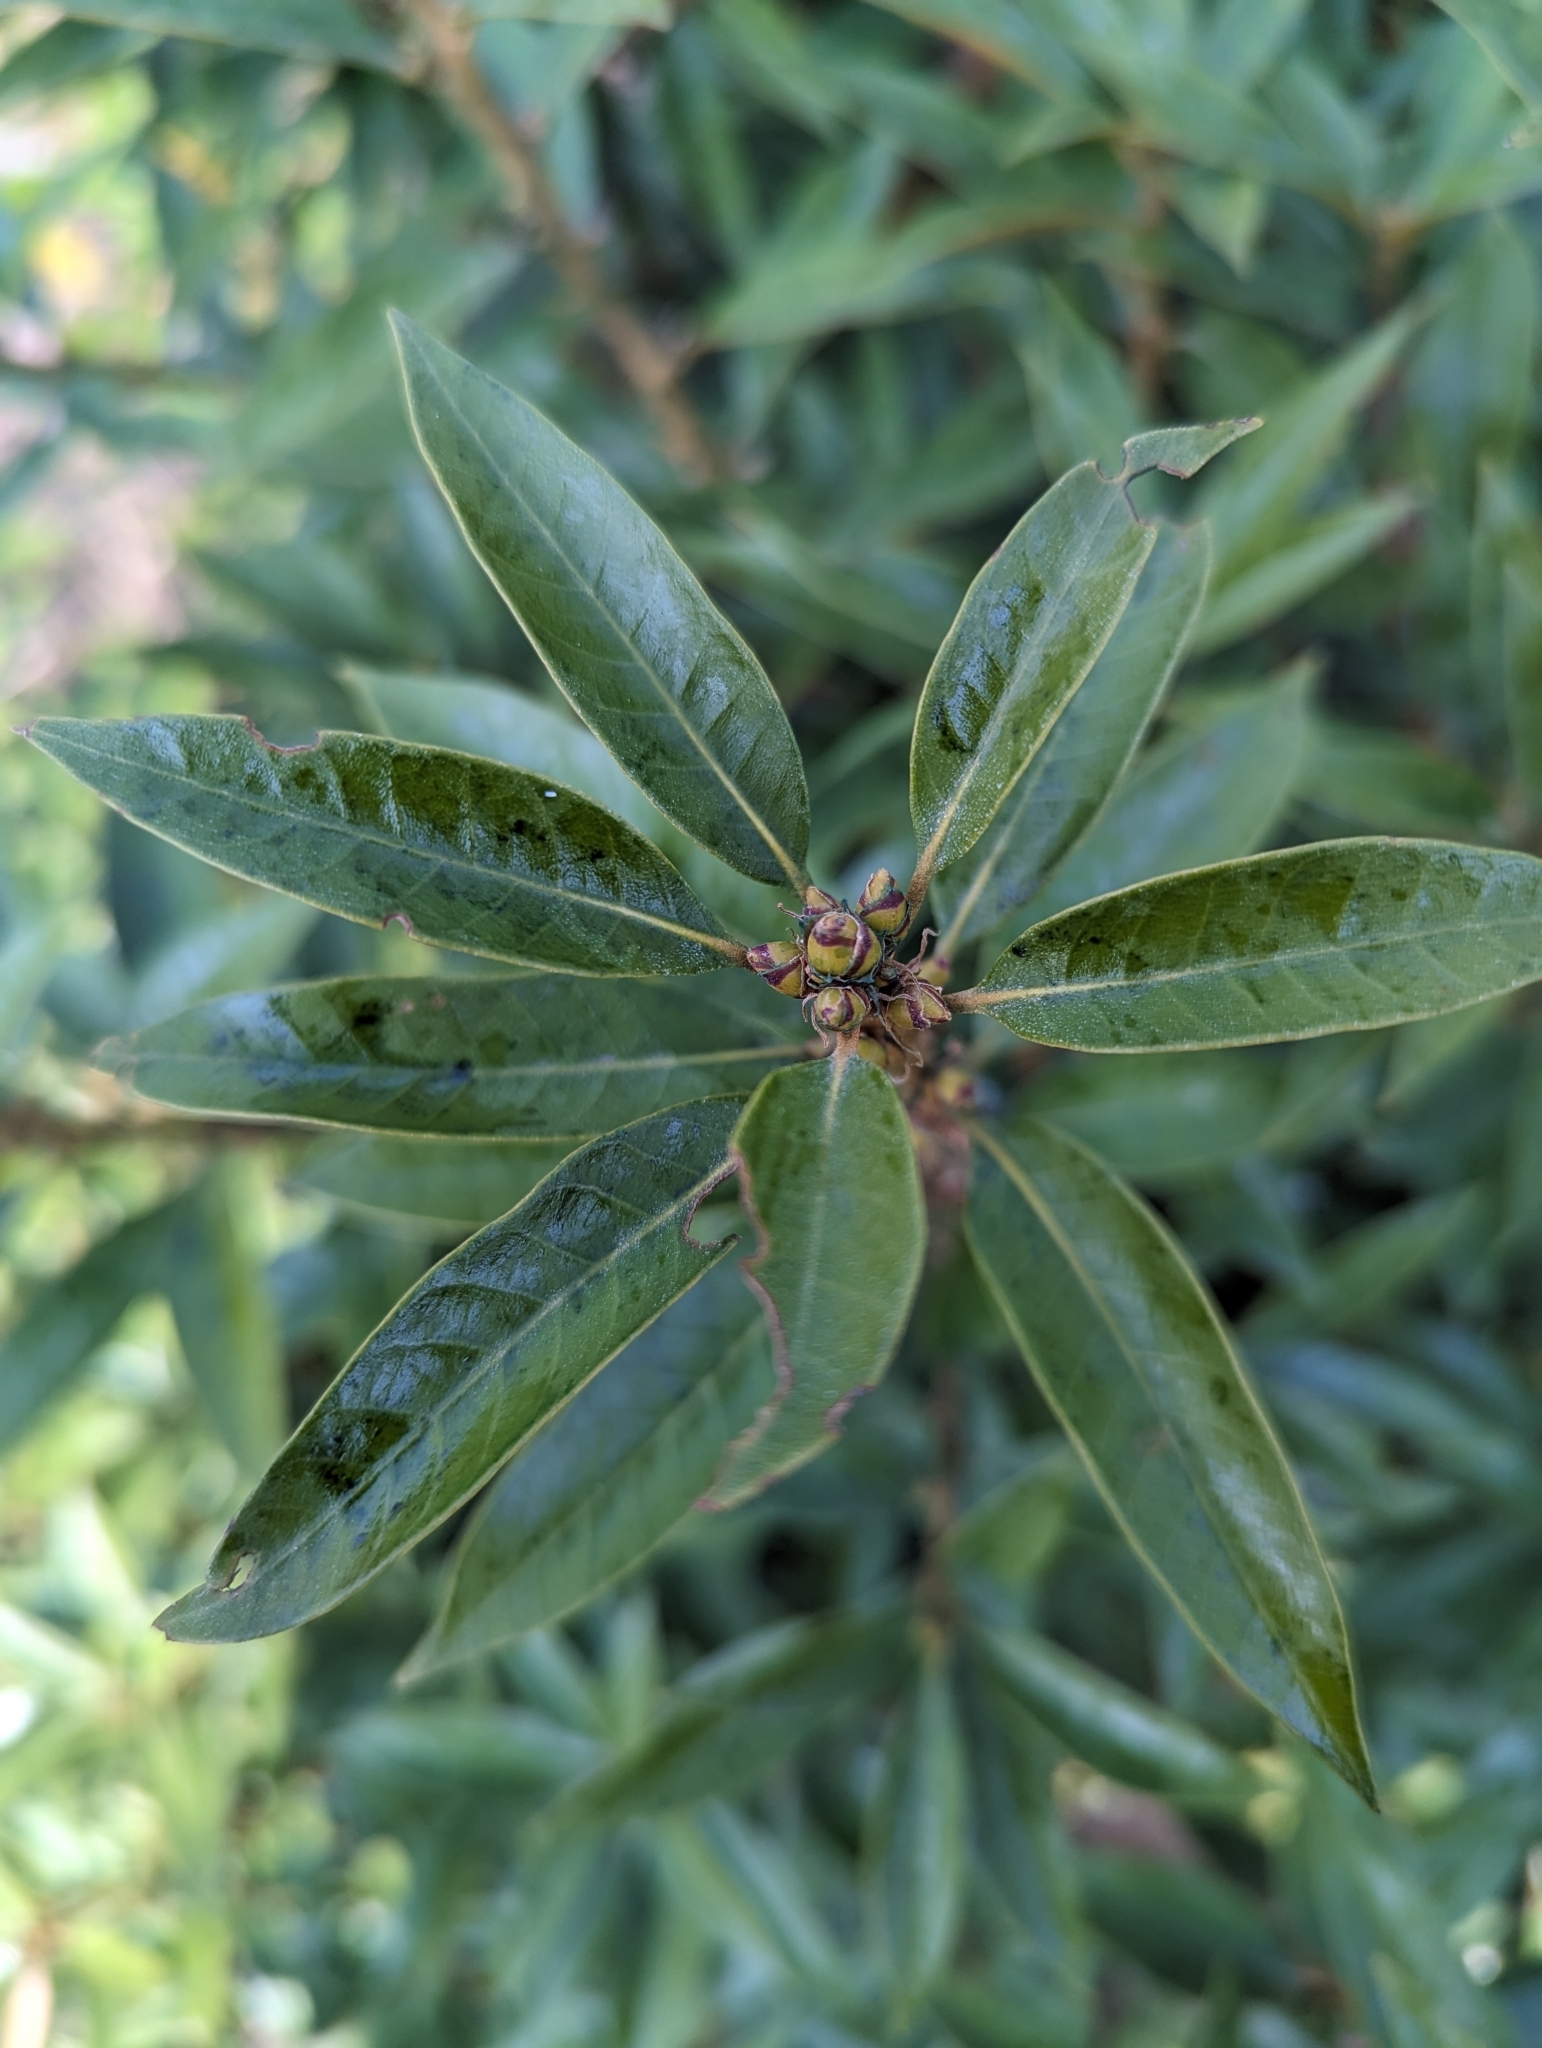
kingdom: Plantae
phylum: Tracheophyta
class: Magnoliopsida
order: Fagales
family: Fagaceae
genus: Chrysolepis
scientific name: Chrysolepis chrysophylla
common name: Giant chinquapin
